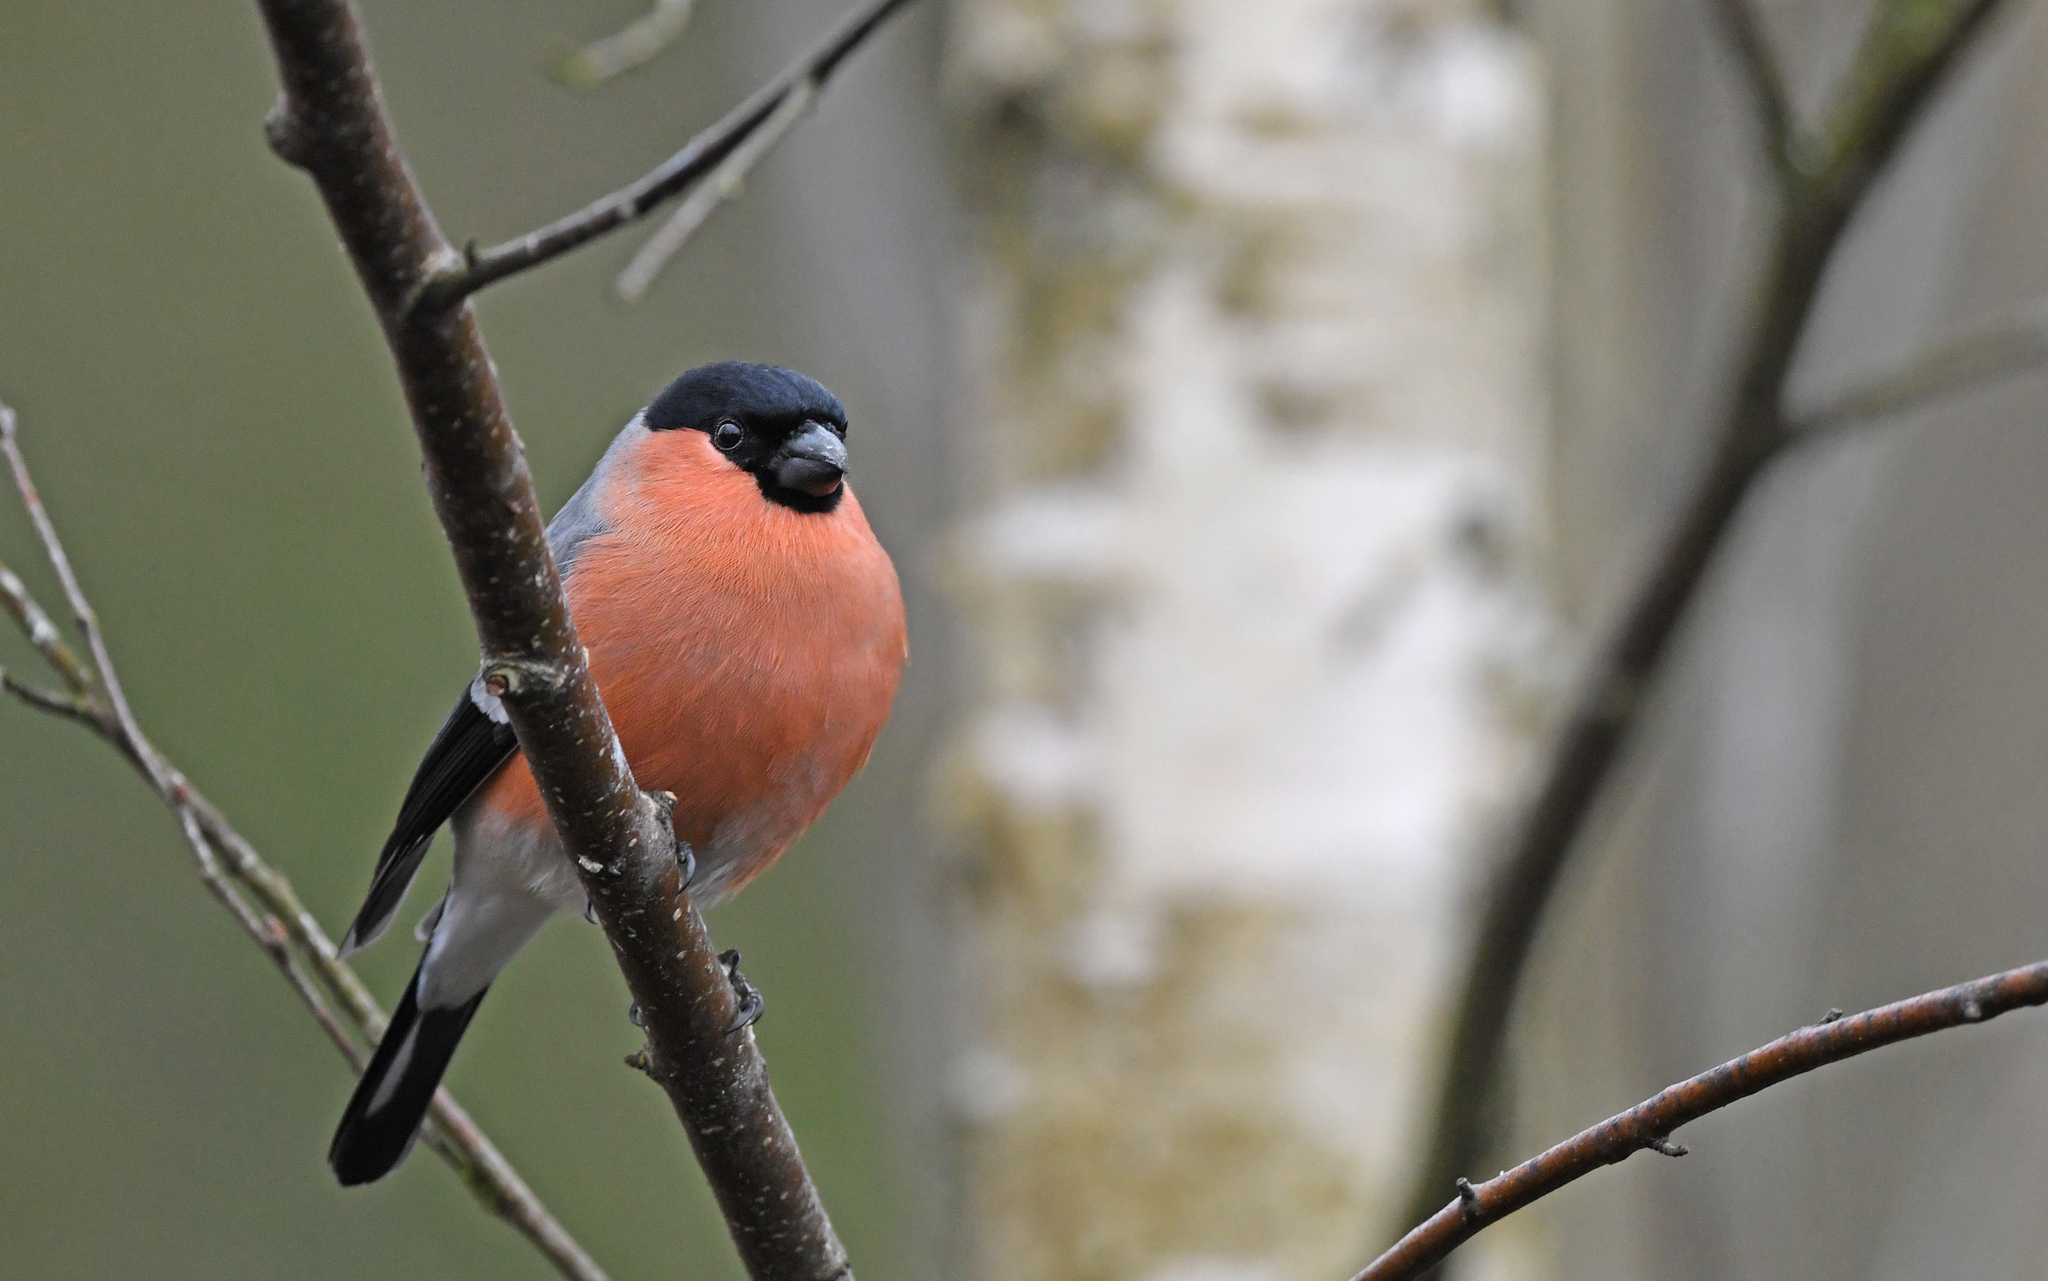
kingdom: Animalia
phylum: Chordata
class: Aves
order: Passeriformes
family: Fringillidae
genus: Pyrrhula
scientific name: Pyrrhula pyrrhula
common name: Eurasian bullfinch
